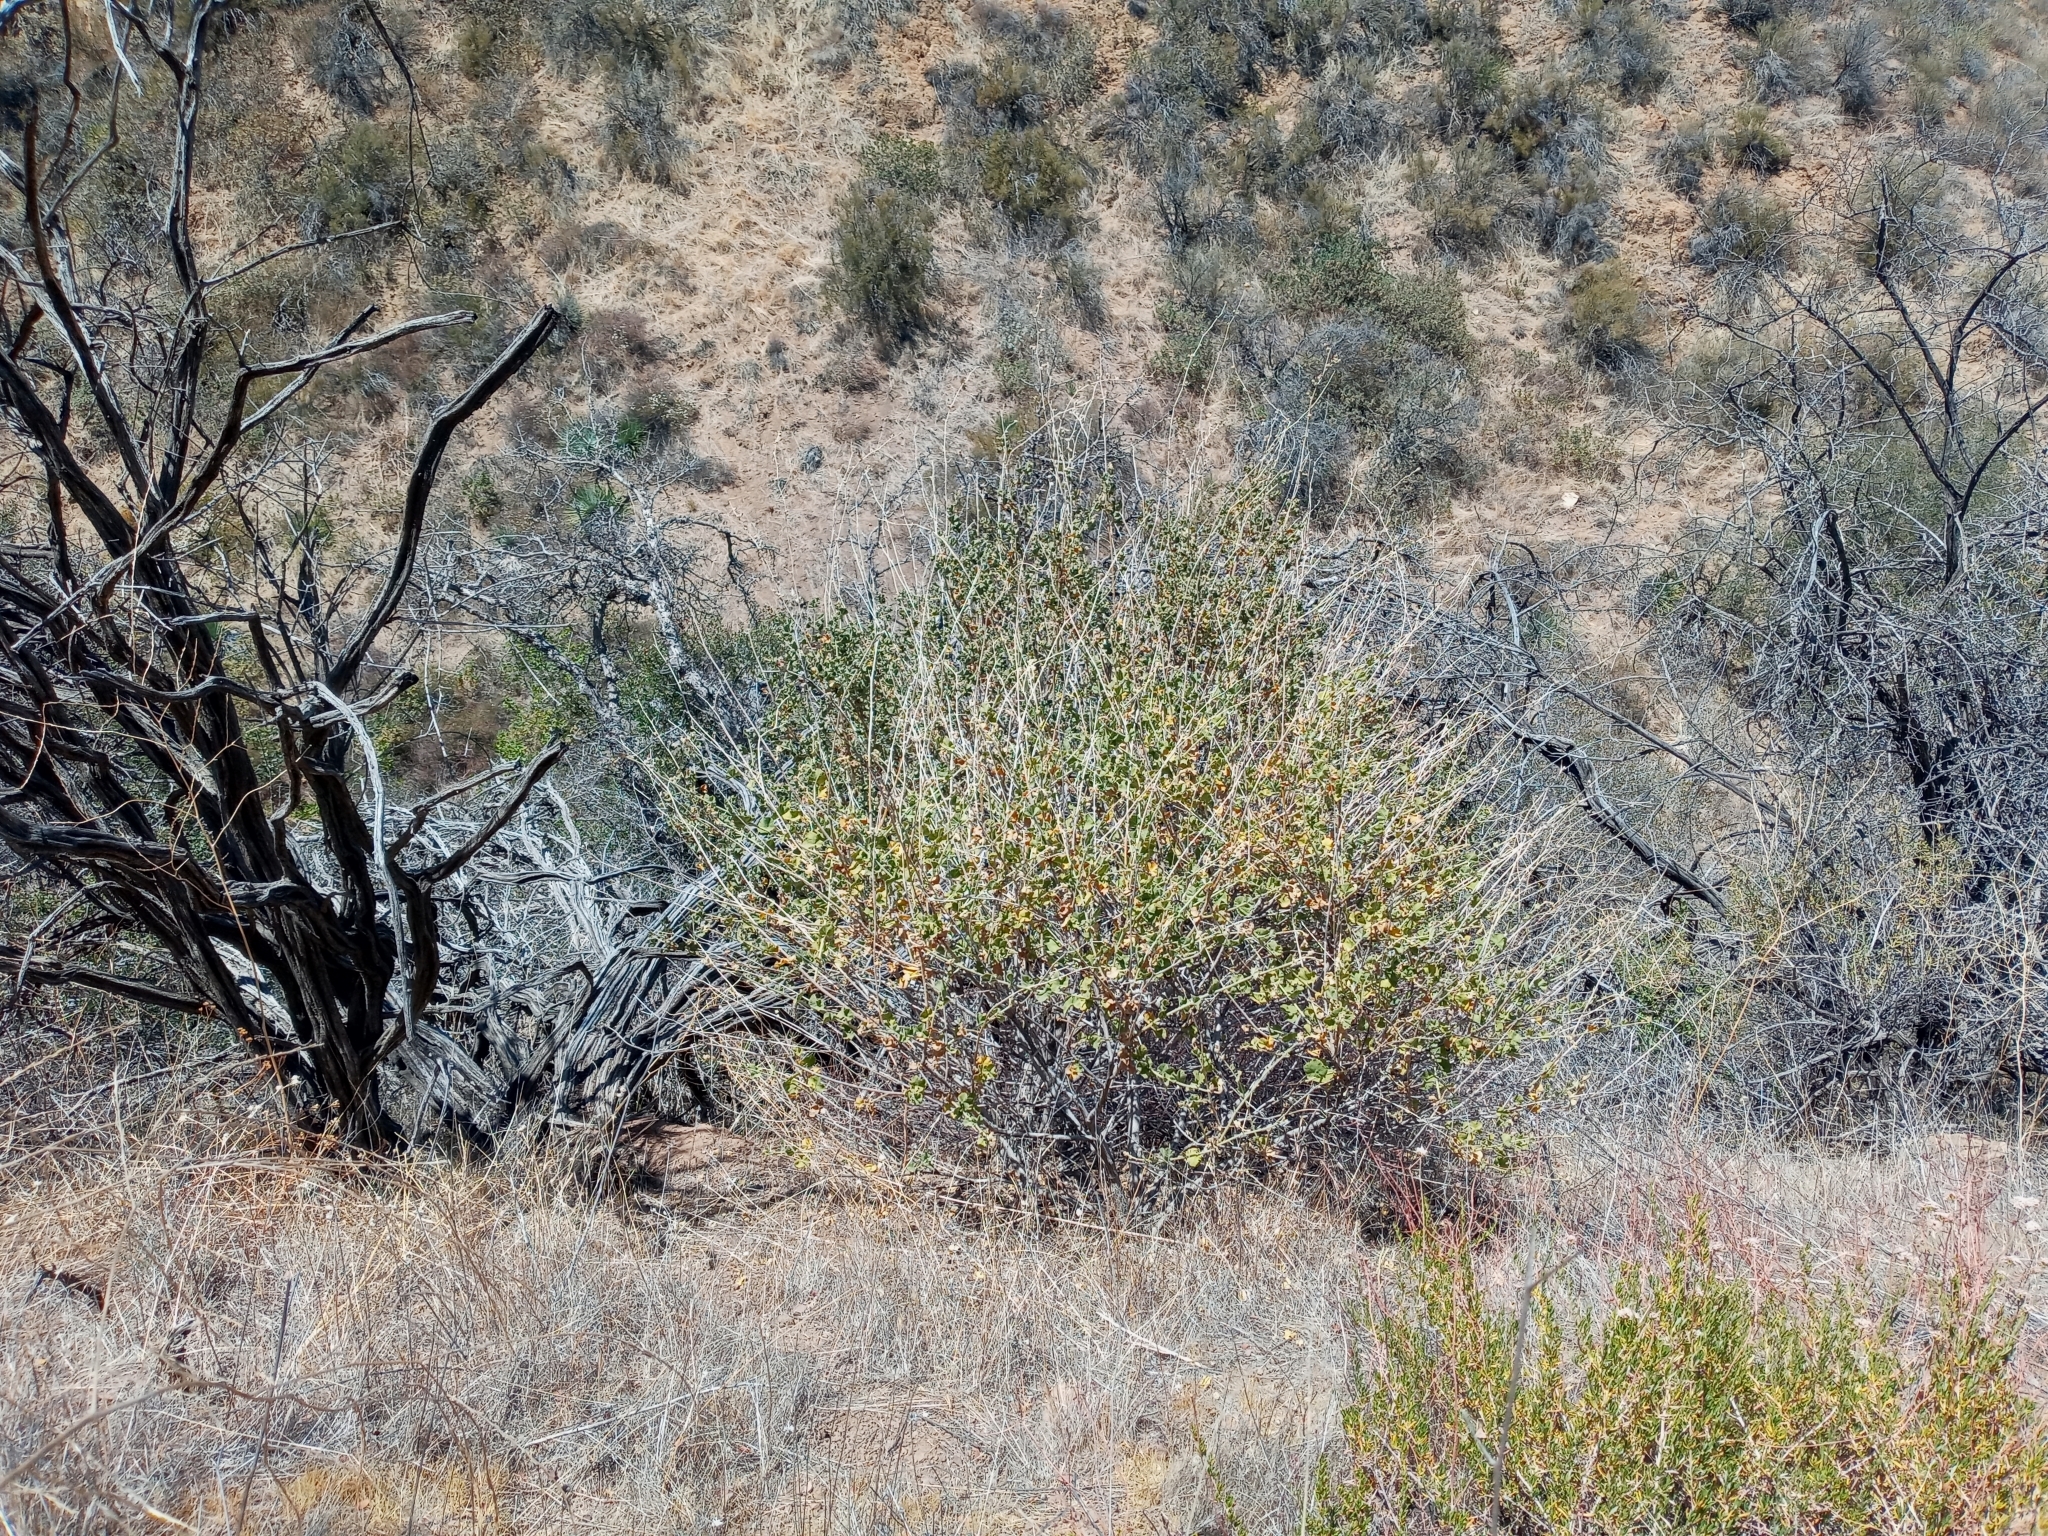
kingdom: Plantae
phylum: Tracheophyta
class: Magnoliopsida
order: Malvales
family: Malvaceae
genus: Malacothamnus
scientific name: Malacothamnus fremontii
